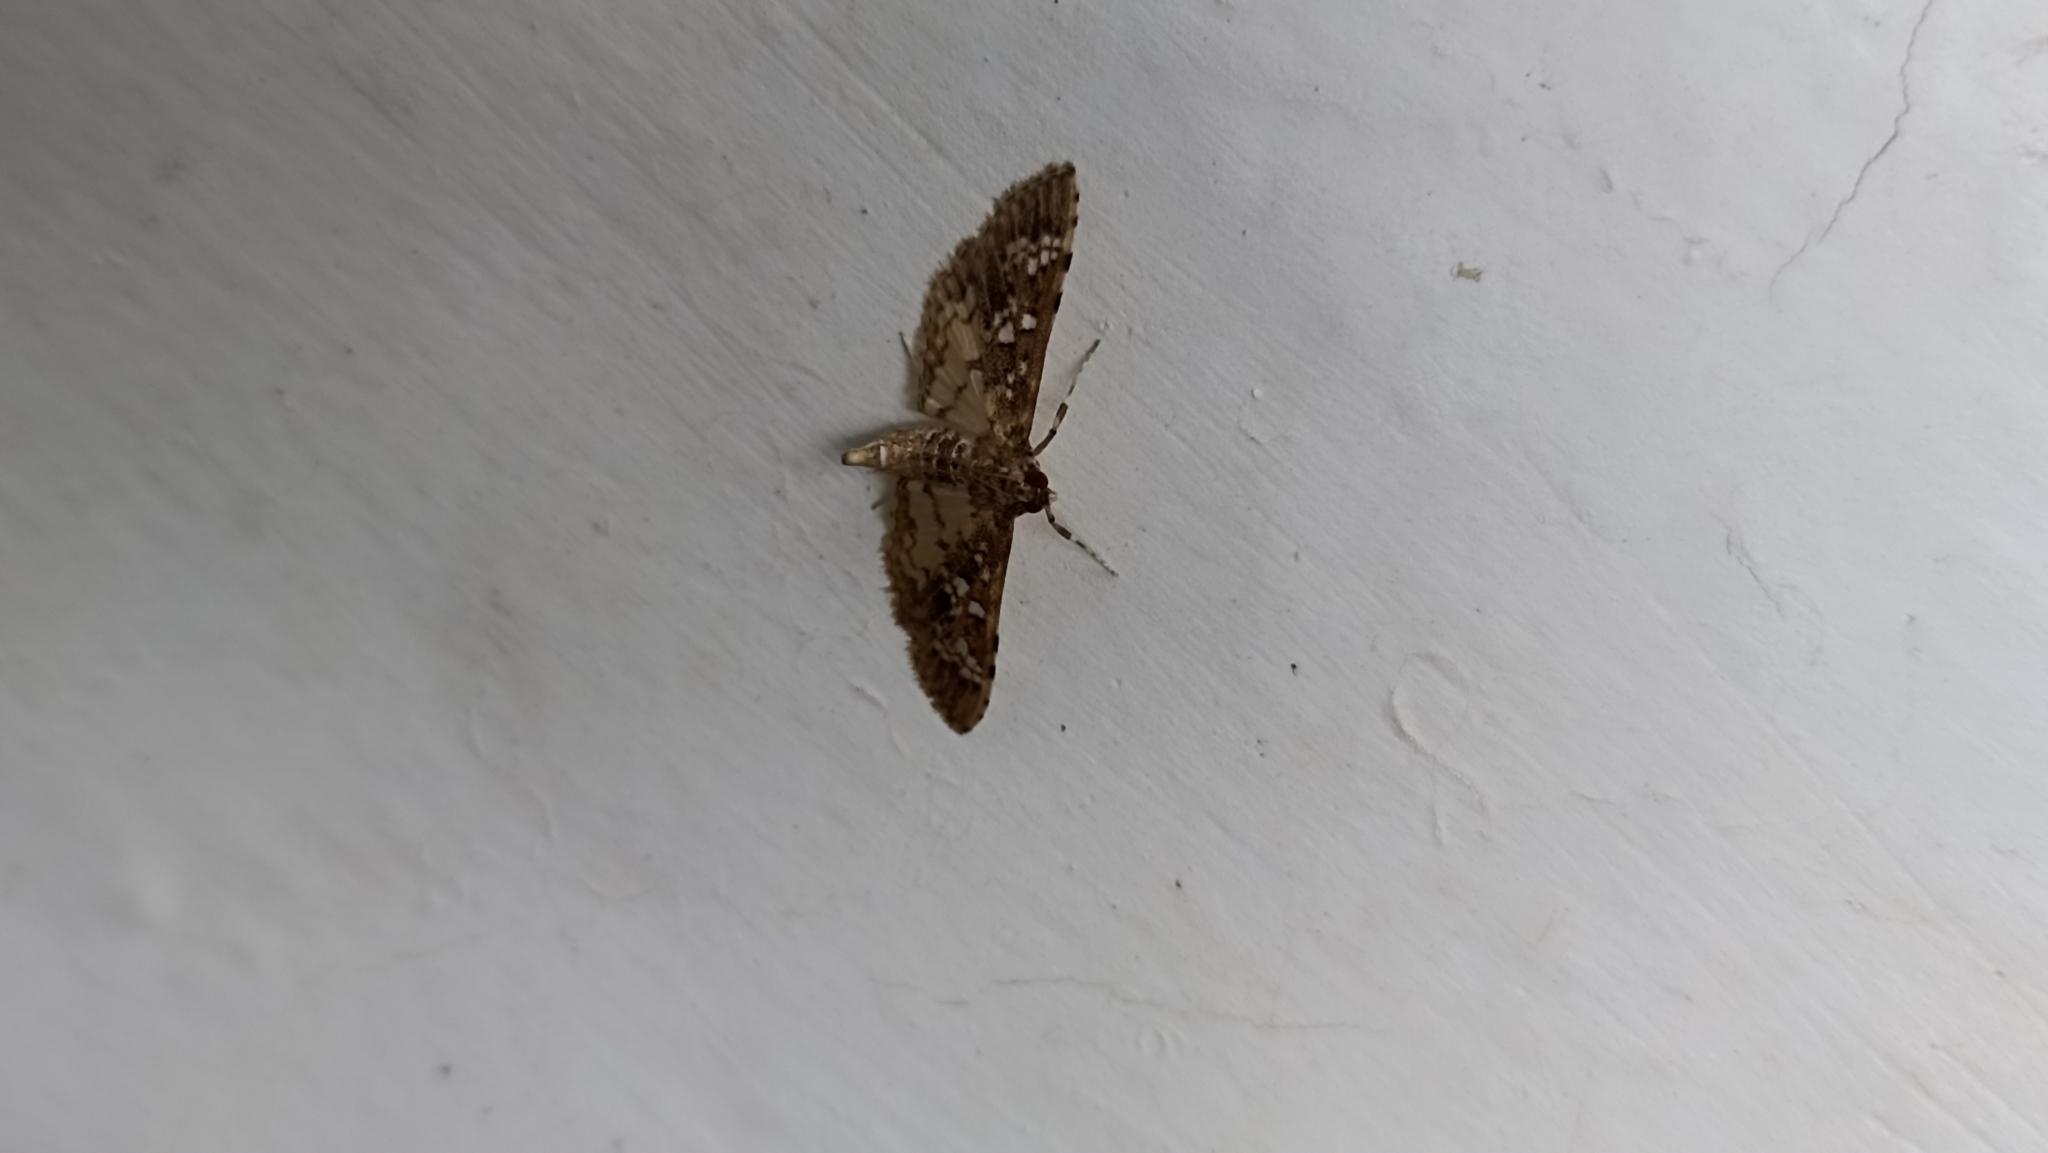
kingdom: Animalia
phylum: Arthropoda
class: Insecta
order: Lepidoptera
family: Crambidae
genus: Samea
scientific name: Samea multiplicalis
